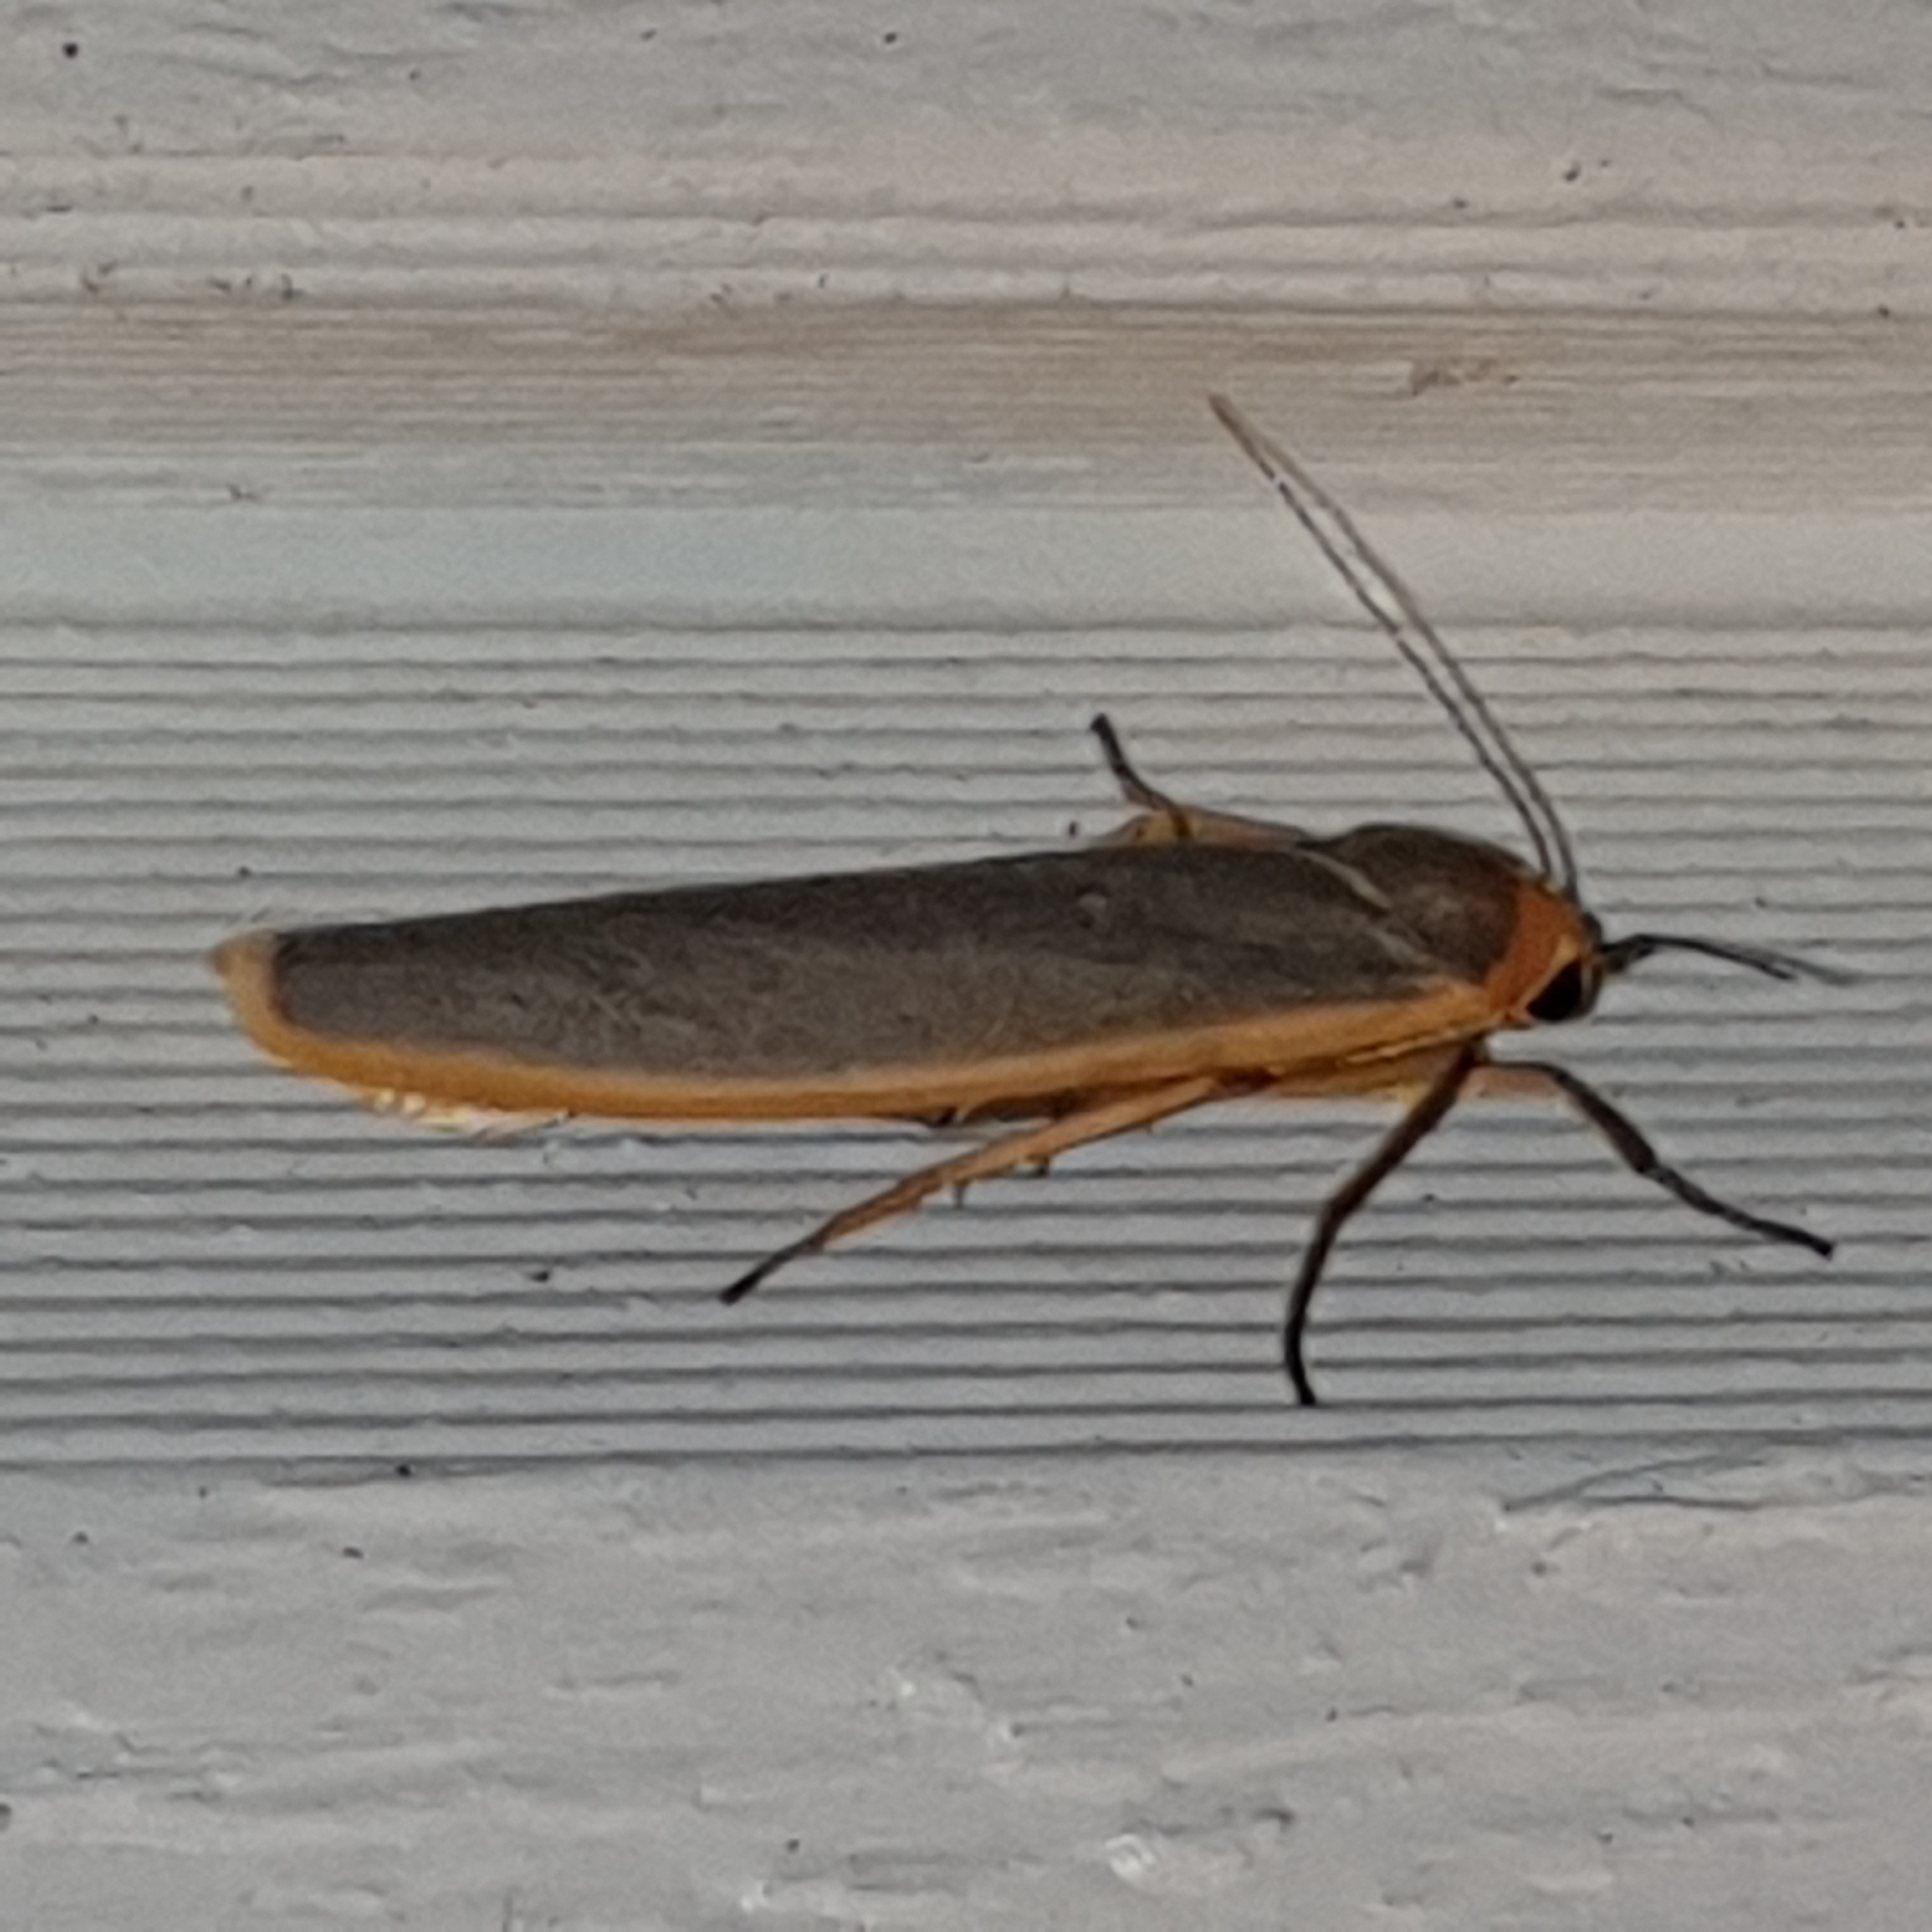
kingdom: Animalia
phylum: Arthropoda
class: Insecta
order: Lepidoptera
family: Erebidae
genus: Manulea
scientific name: Manulea complana
